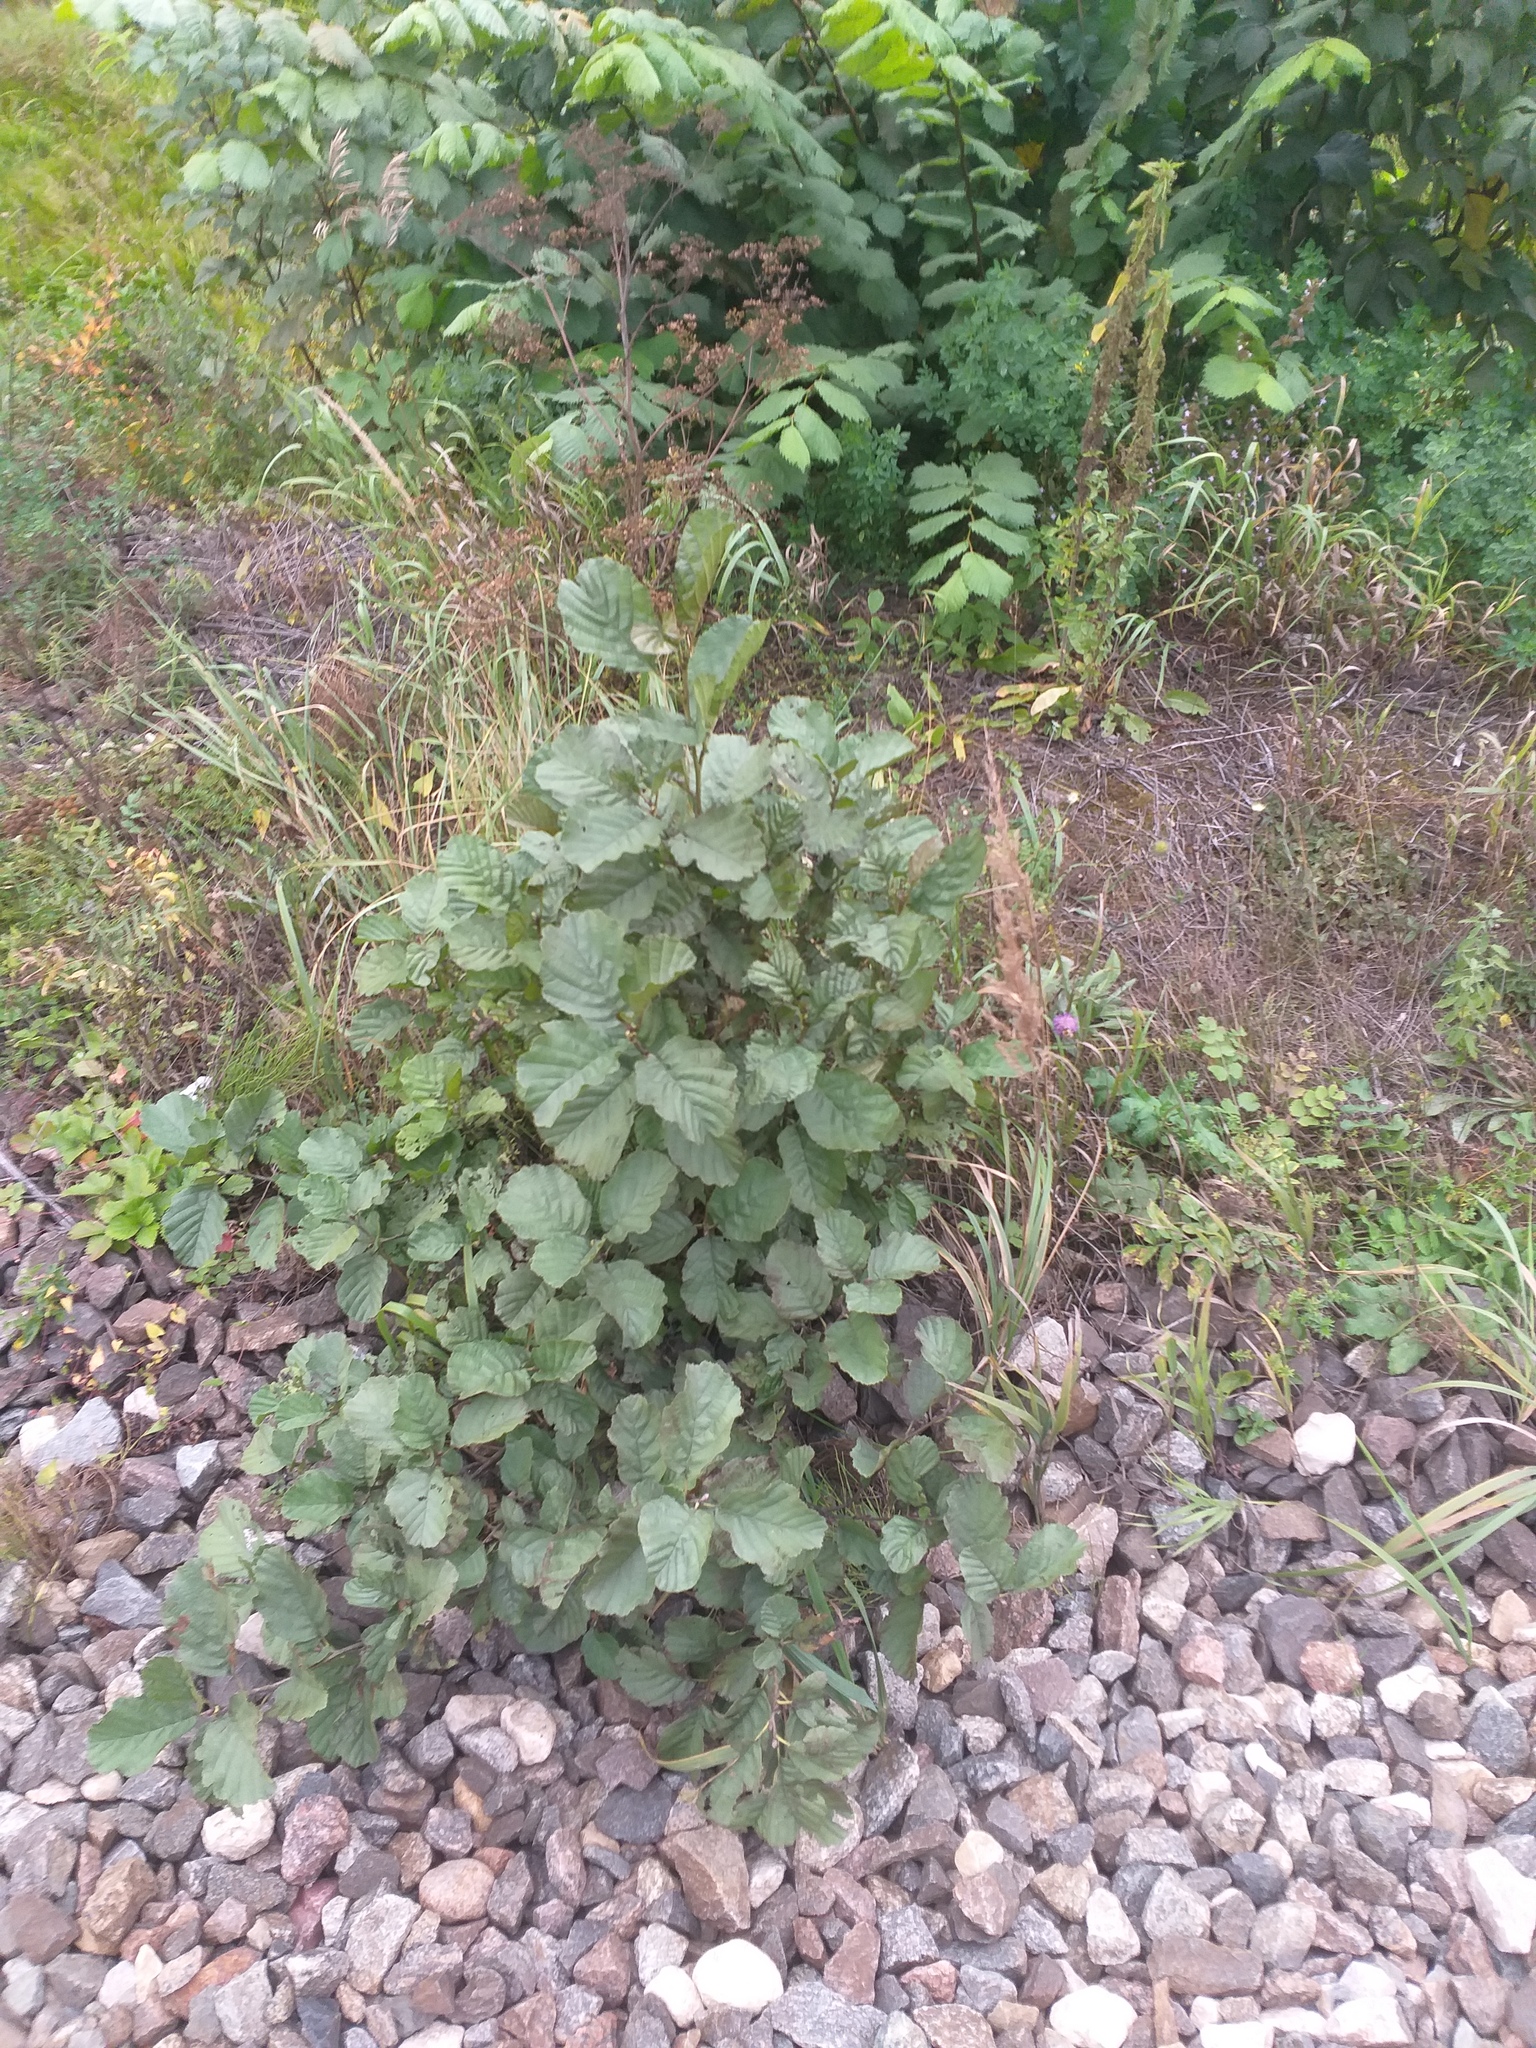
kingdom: Plantae
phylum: Tracheophyta
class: Magnoliopsida
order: Fagales
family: Betulaceae
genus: Alnus
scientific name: Alnus glutinosa
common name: Black alder
